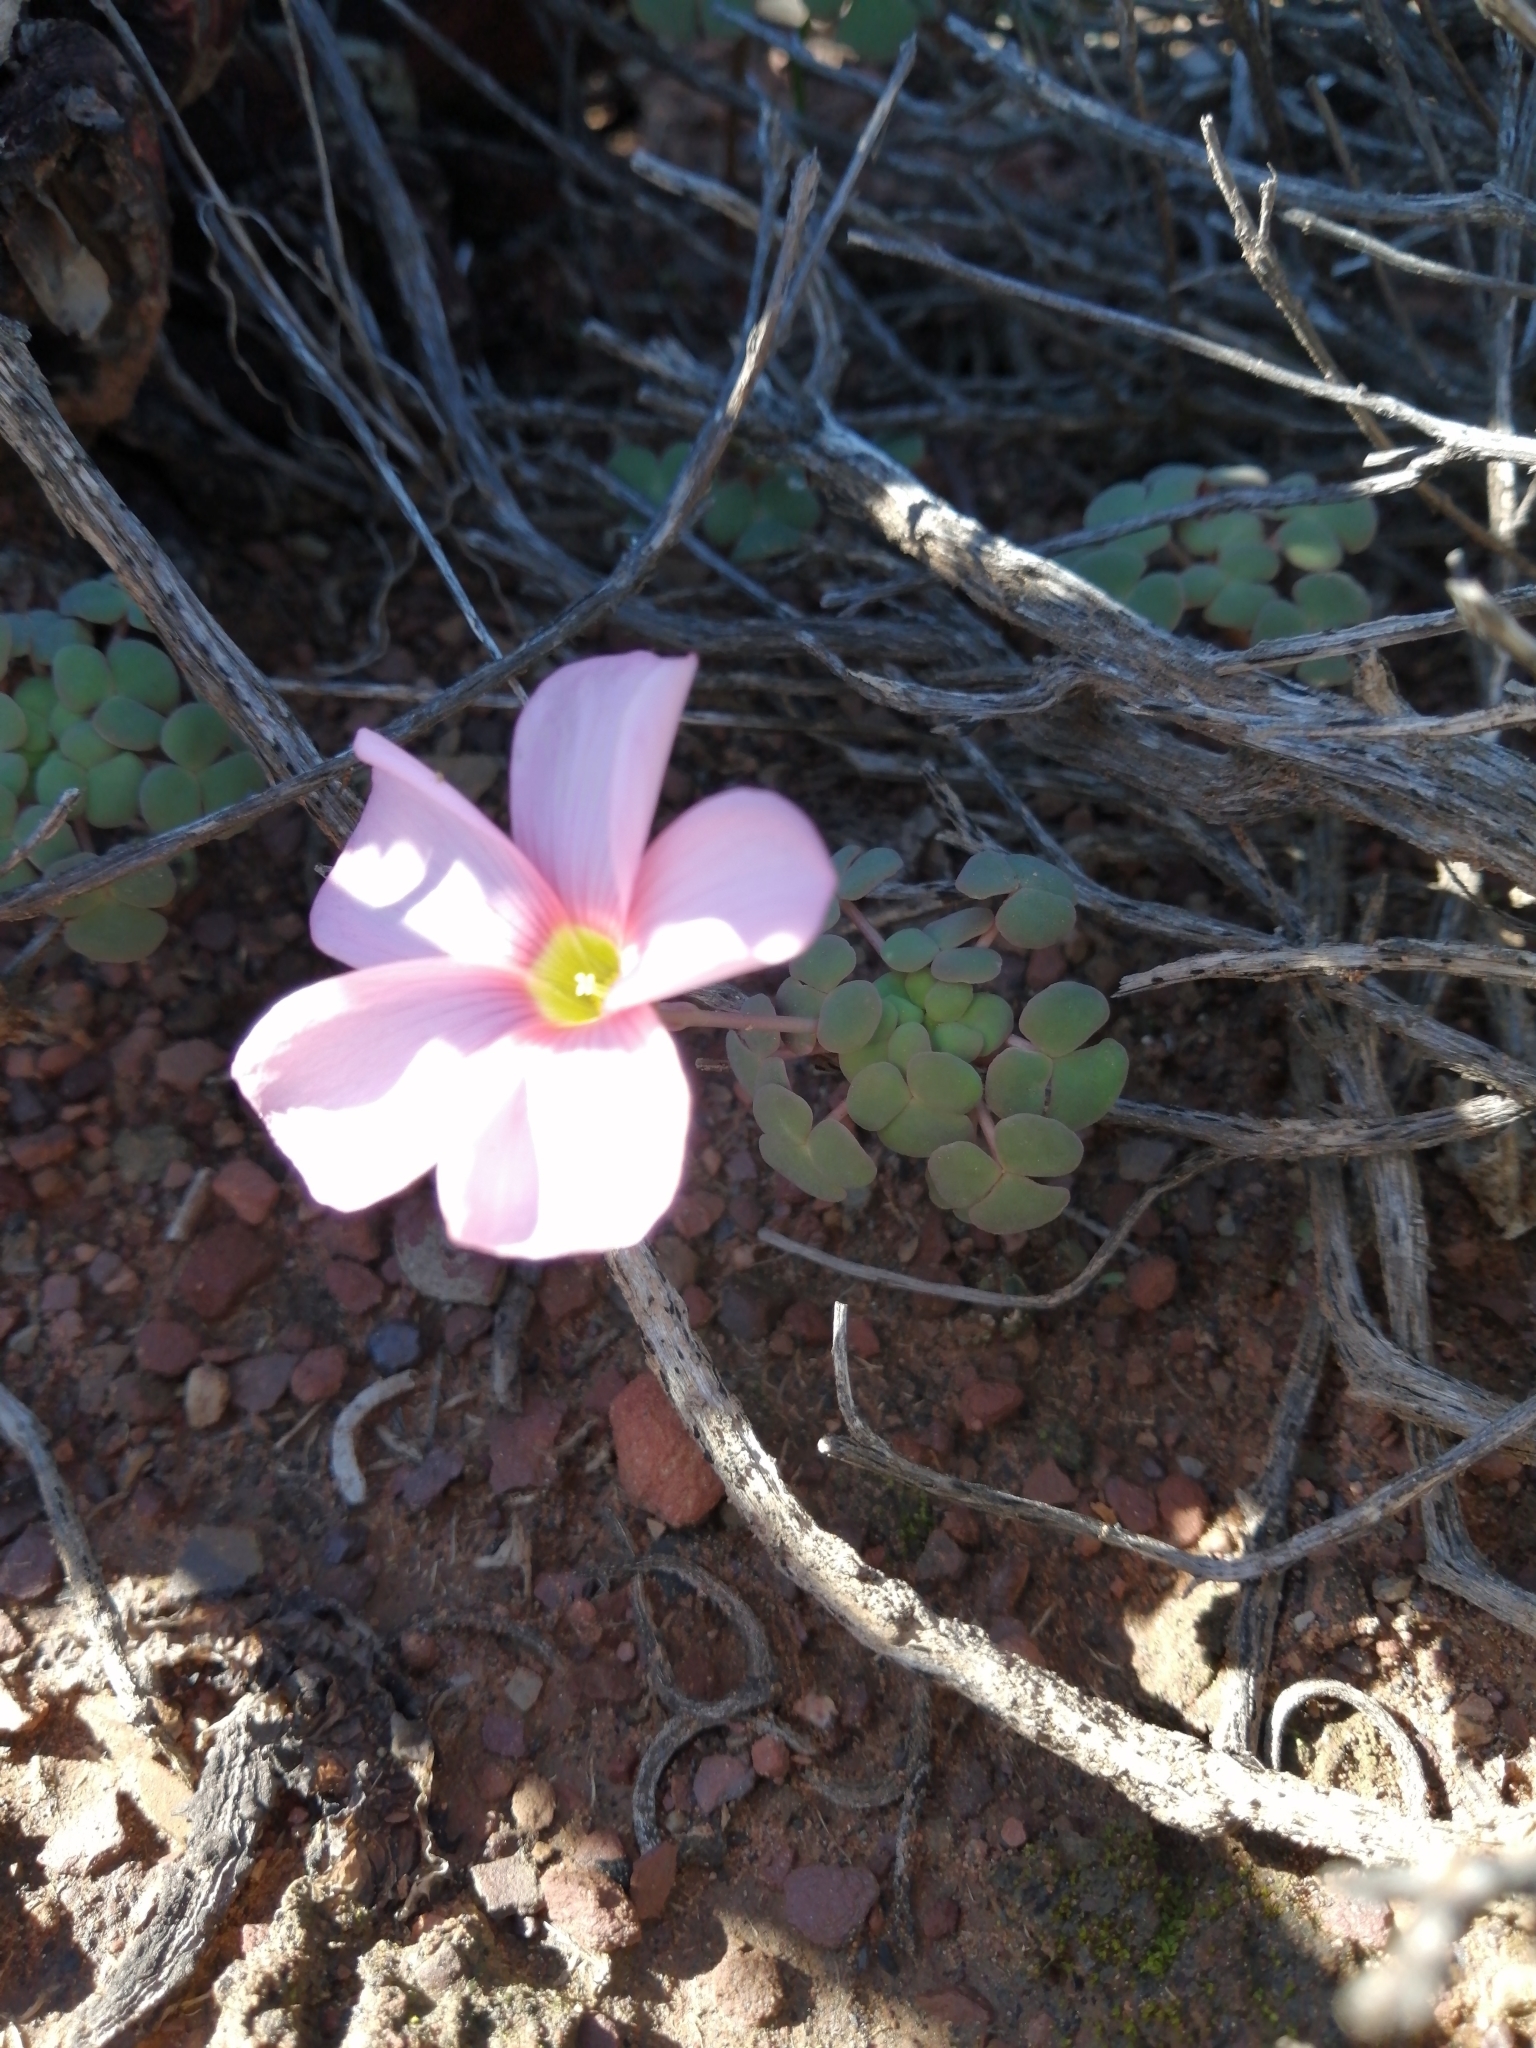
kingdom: Plantae
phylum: Tracheophyta
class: Magnoliopsida
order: Oxalidales
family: Oxalidaceae
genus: Oxalis
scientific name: Oxalis convexula
